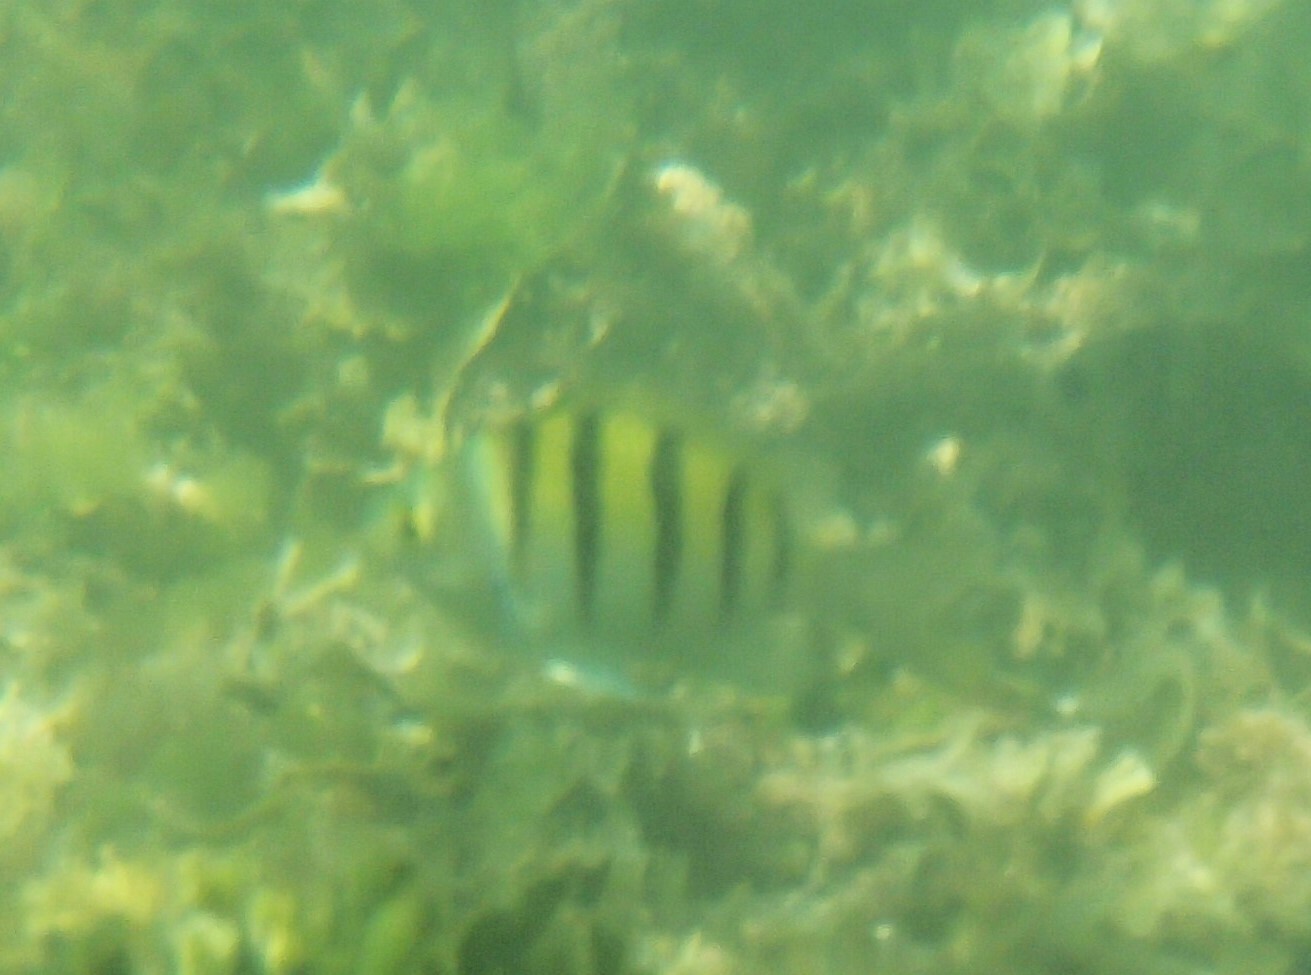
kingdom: Animalia
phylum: Chordata
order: Perciformes
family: Pomacentridae
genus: Abudefduf
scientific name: Abudefduf troschelii
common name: Panamic sergeant major
